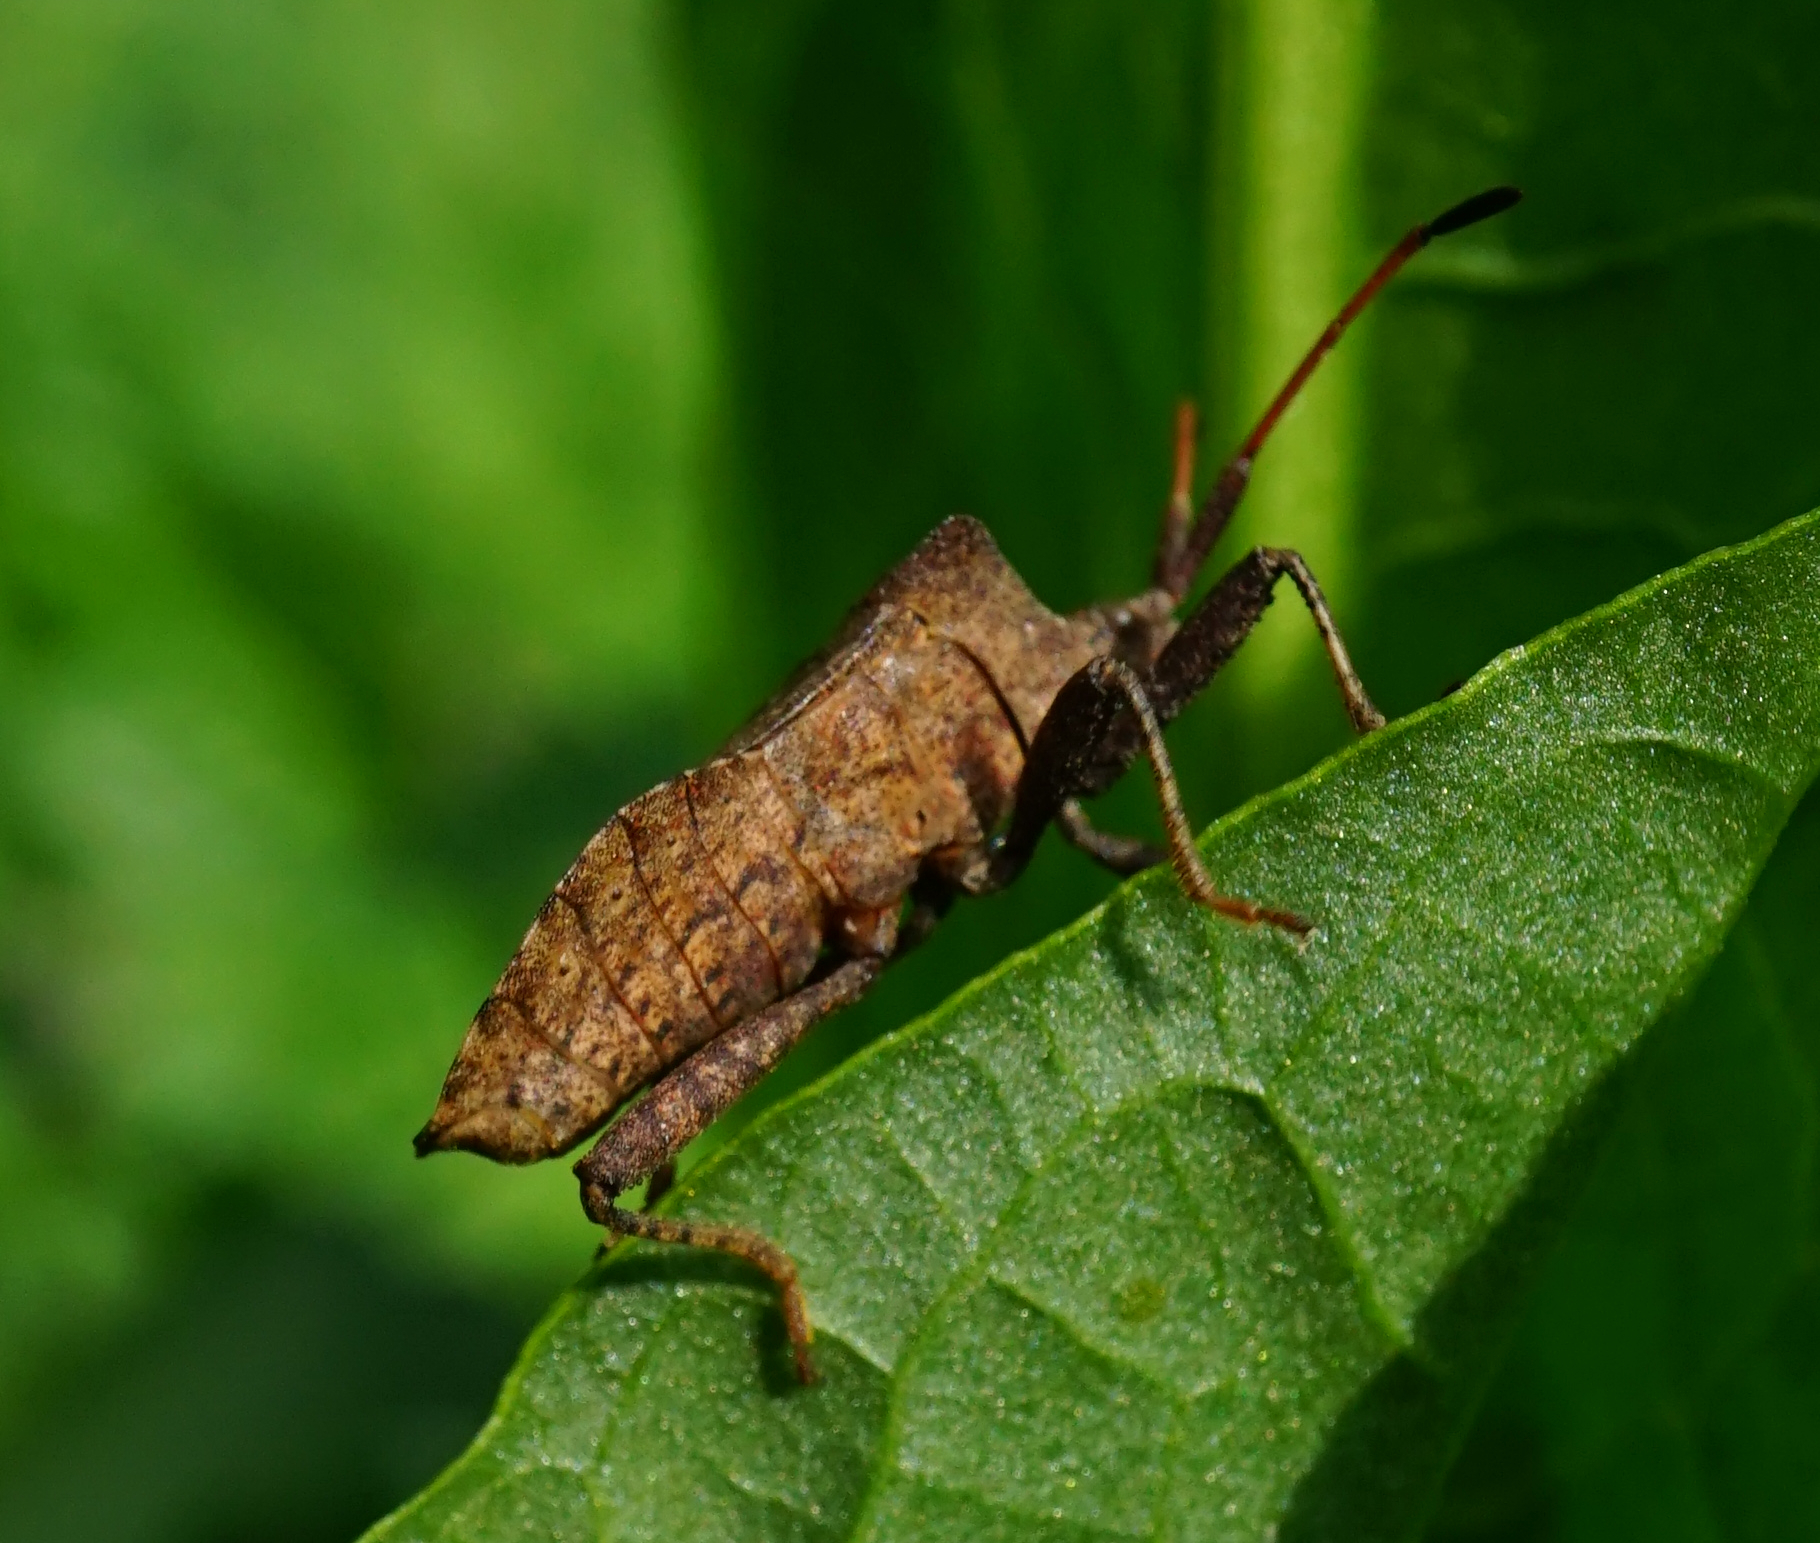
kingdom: Animalia
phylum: Arthropoda
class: Insecta
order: Hemiptera
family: Coreidae
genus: Coreus
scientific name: Coreus marginatus
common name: Dock bug
